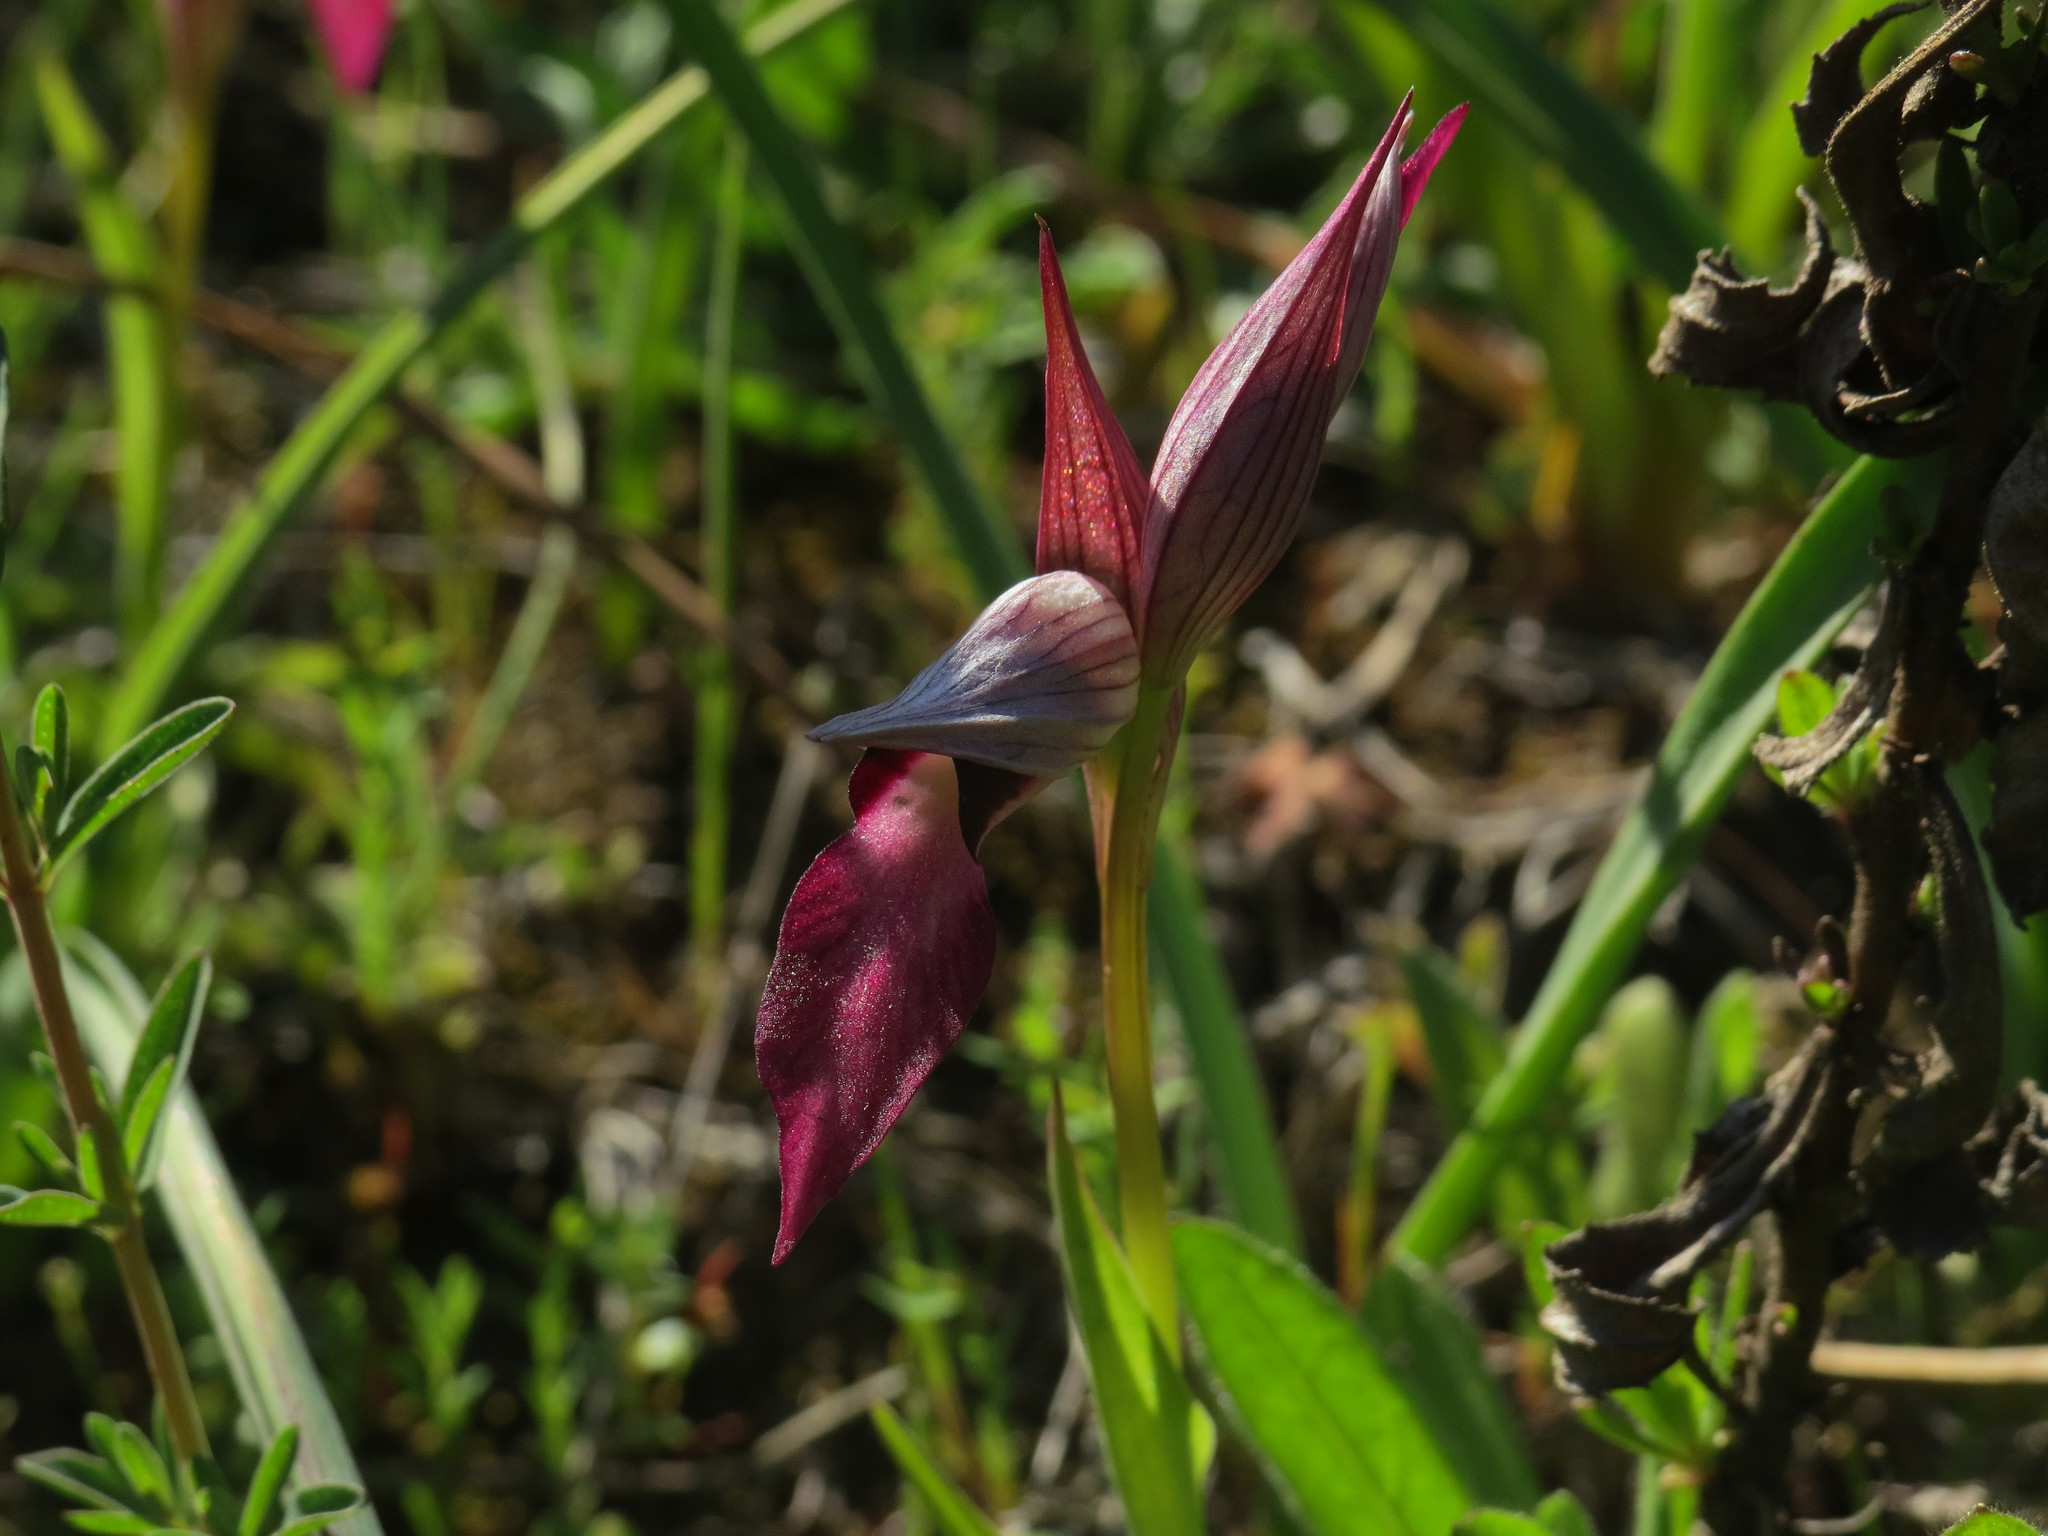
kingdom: Plantae
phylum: Tracheophyta
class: Liliopsida
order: Asparagales
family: Orchidaceae
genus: Serapias
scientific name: Serapias lingua
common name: Tongue-orchid
